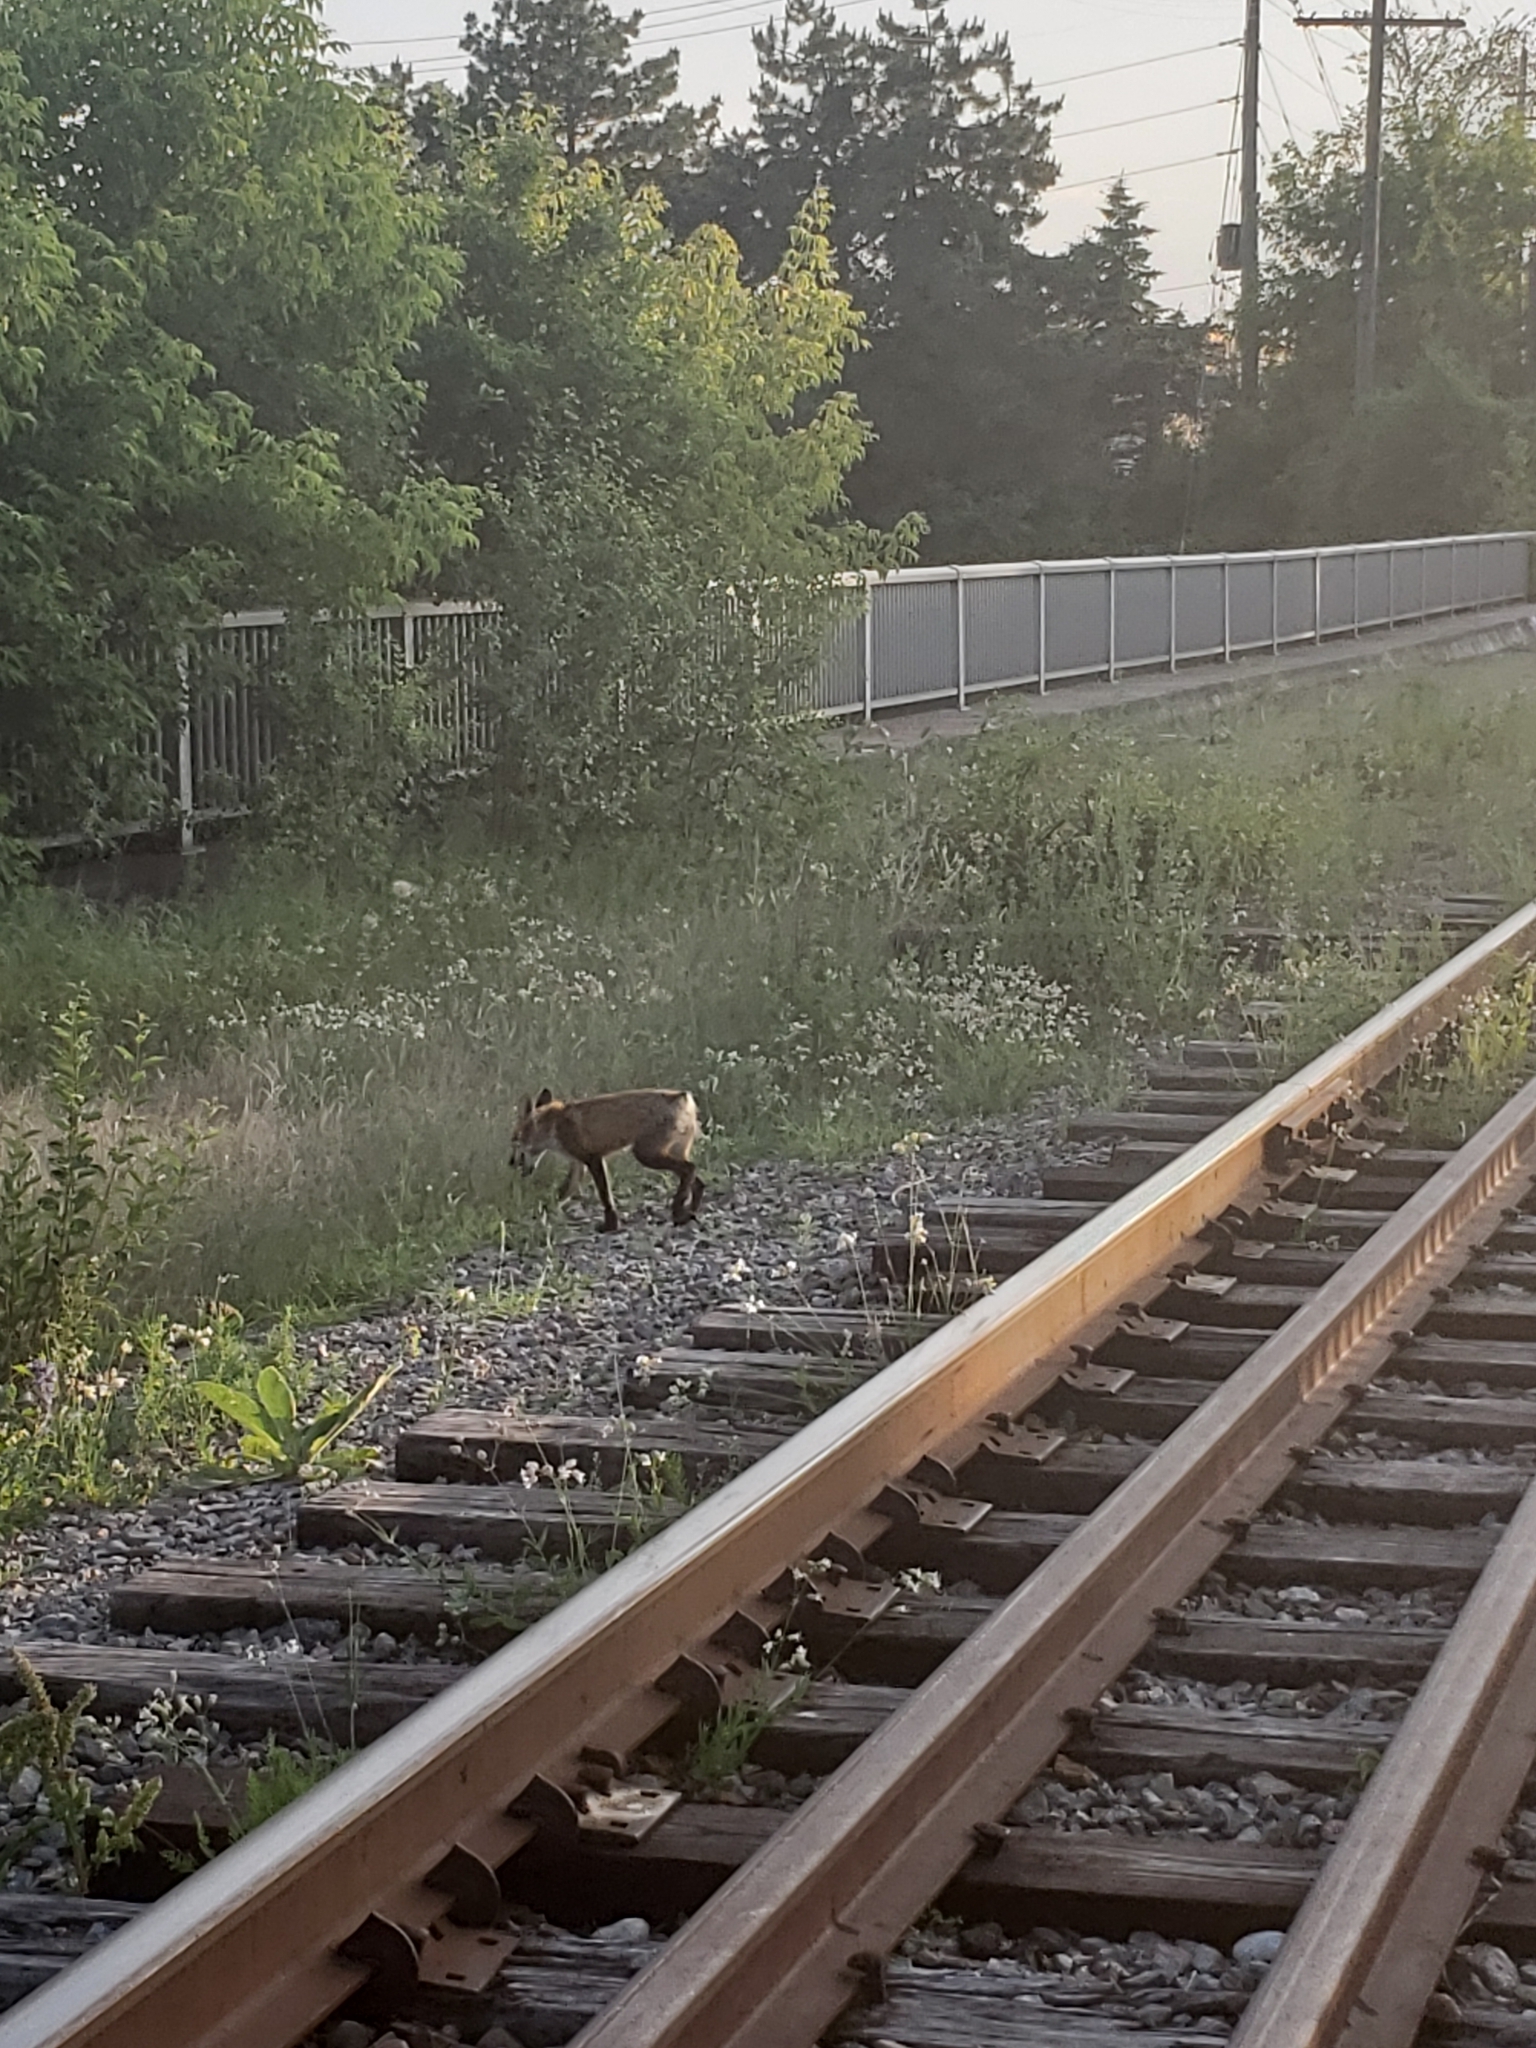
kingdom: Animalia
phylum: Chordata
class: Mammalia
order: Carnivora
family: Canidae
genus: Vulpes
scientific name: Vulpes vulpes
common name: Red fox
